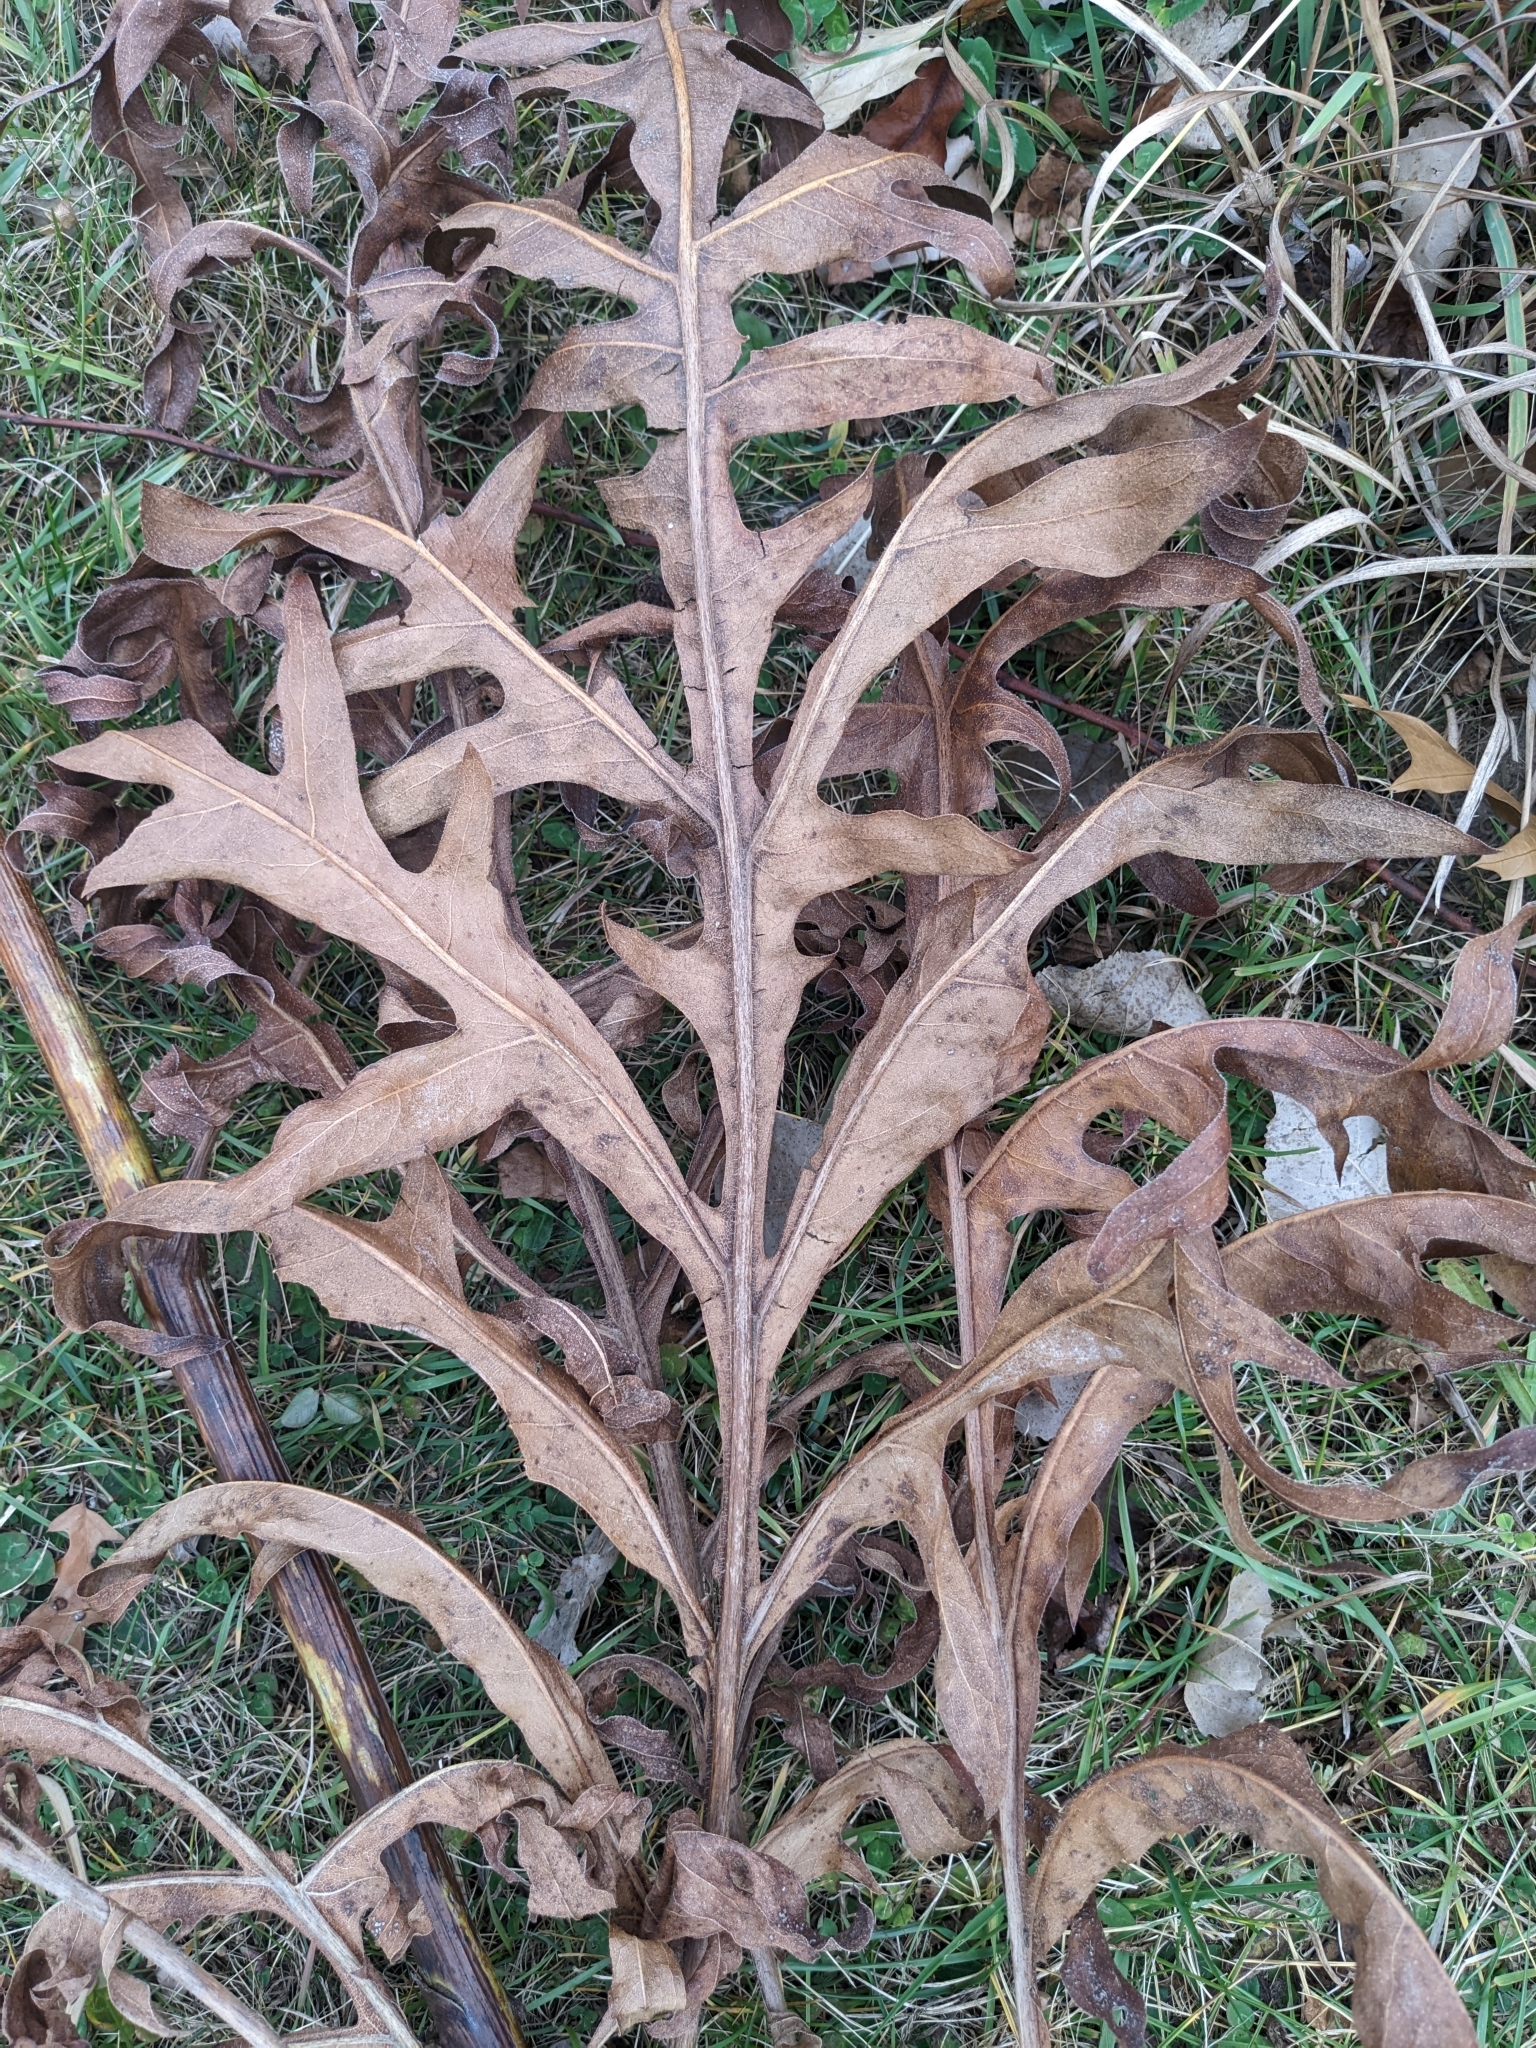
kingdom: Plantae
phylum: Tracheophyta
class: Magnoliopsida
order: Asterales
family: Asteraceae
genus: Silphium
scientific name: Silphium laciniatum
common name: Polarplant
